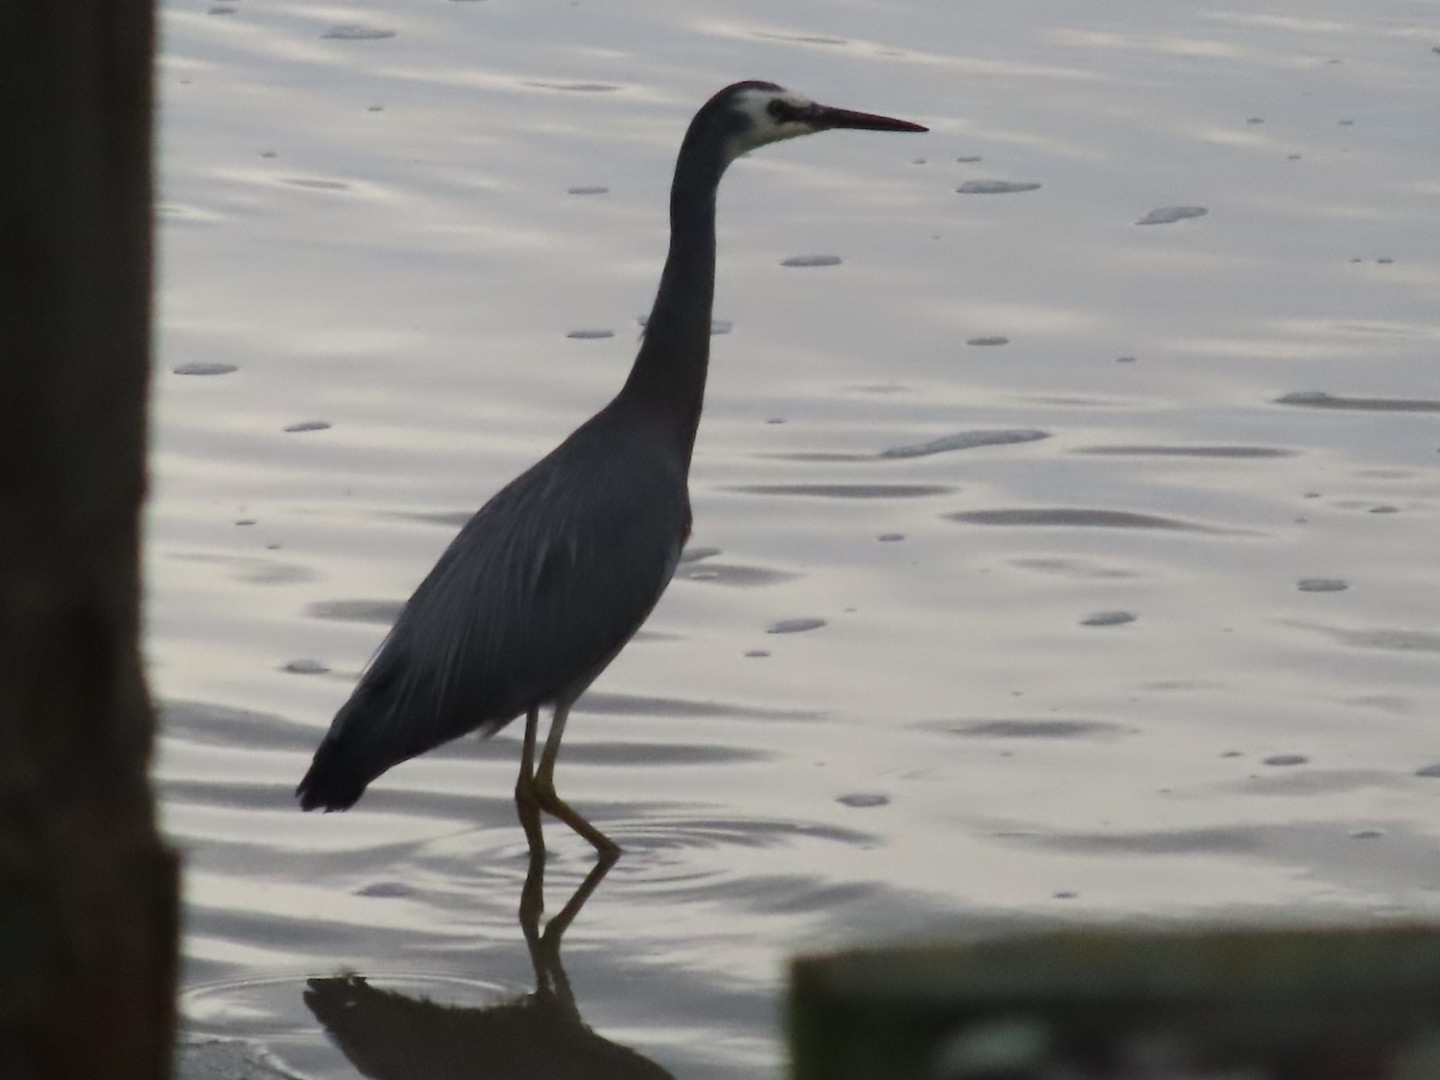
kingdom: Animalia
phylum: Chordata
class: Aves
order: Pelecaniformes
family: Ardeidae
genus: Egretta
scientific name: Egretta novaehollandiae
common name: White-faced heron
